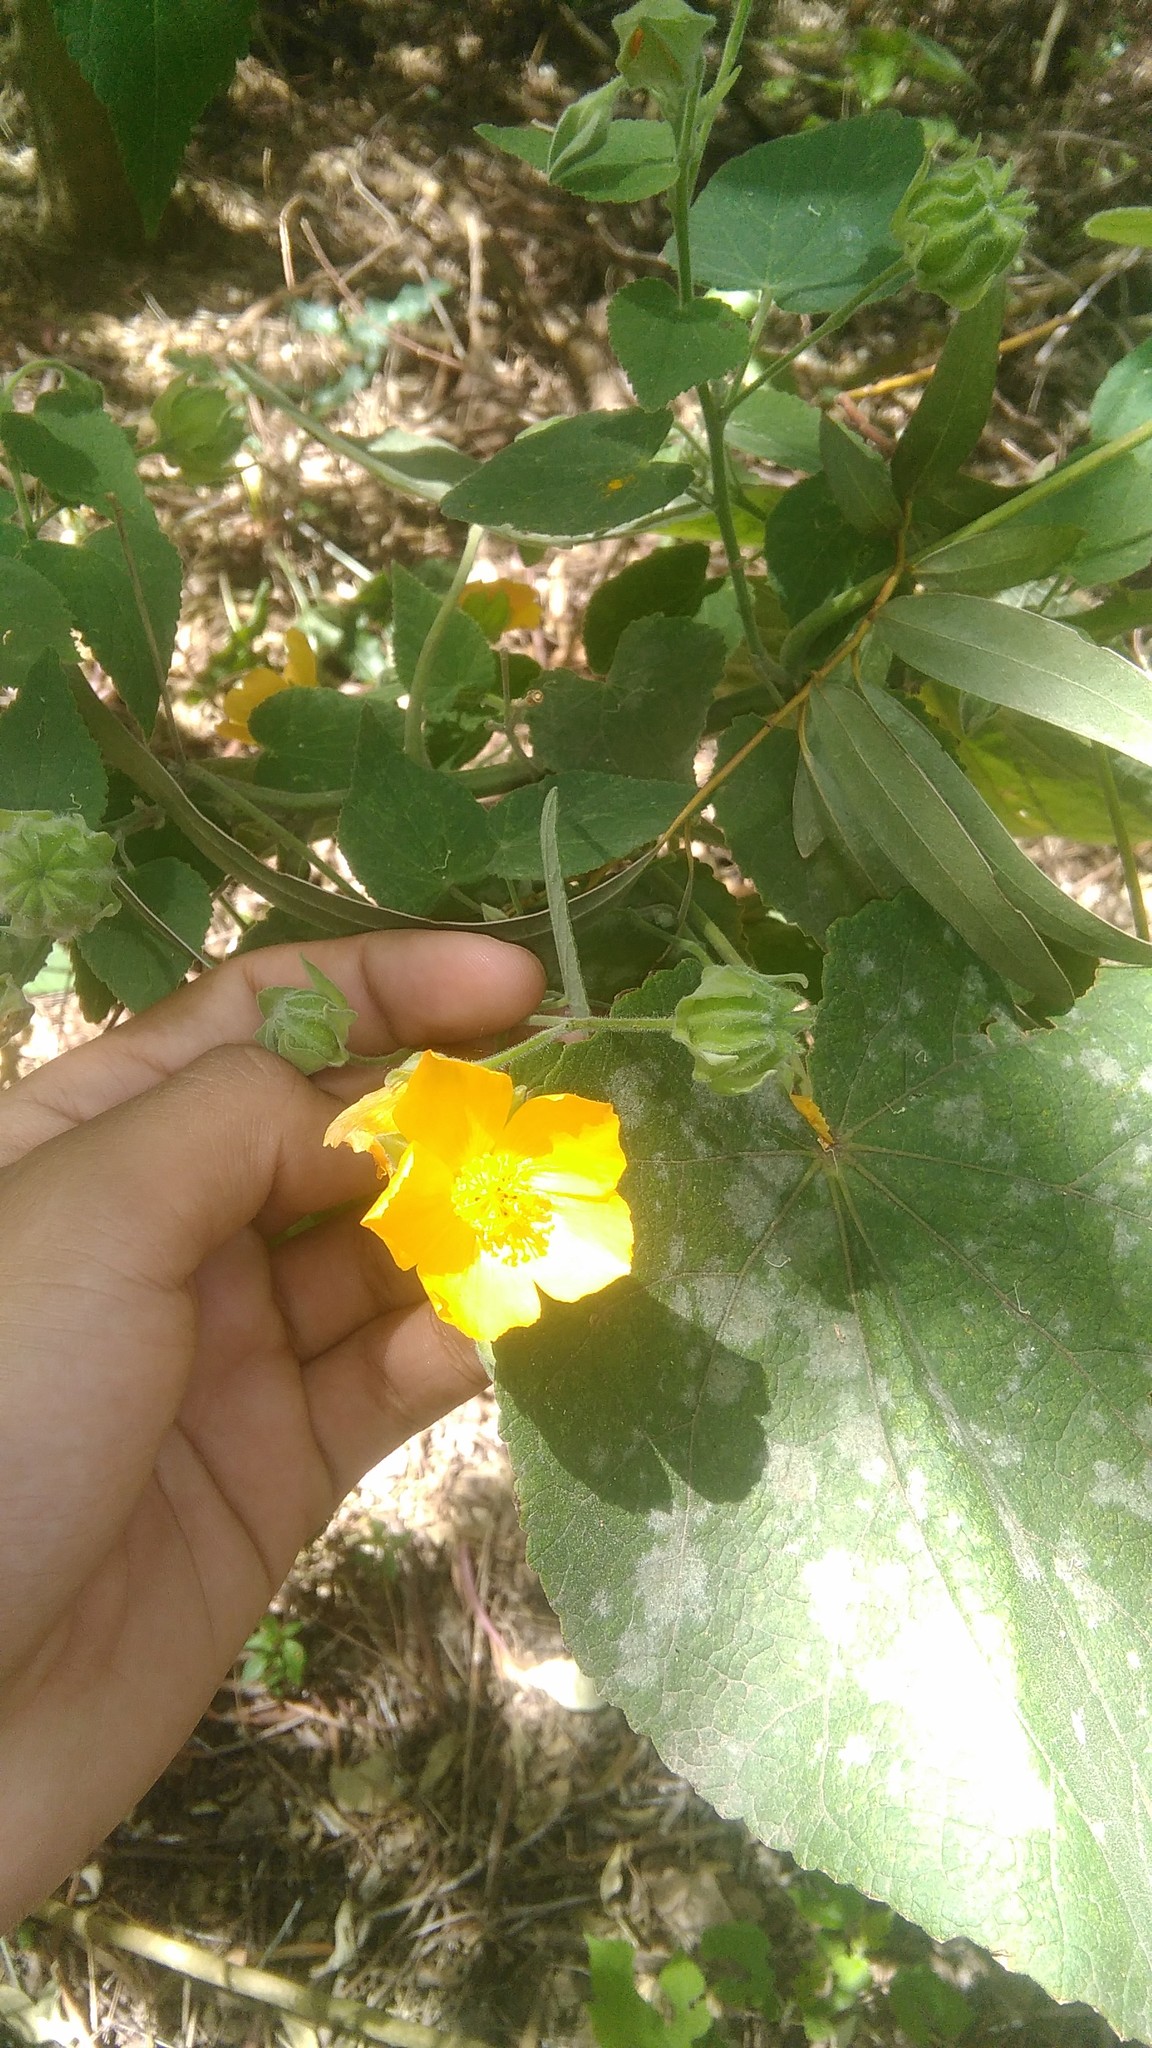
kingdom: Plantae
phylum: Tracheophyta
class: Magnoliopsida
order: Malvales
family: Malvaceae
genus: Abutilon
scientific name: Abutilon grandifolium
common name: Hairy abutilon
